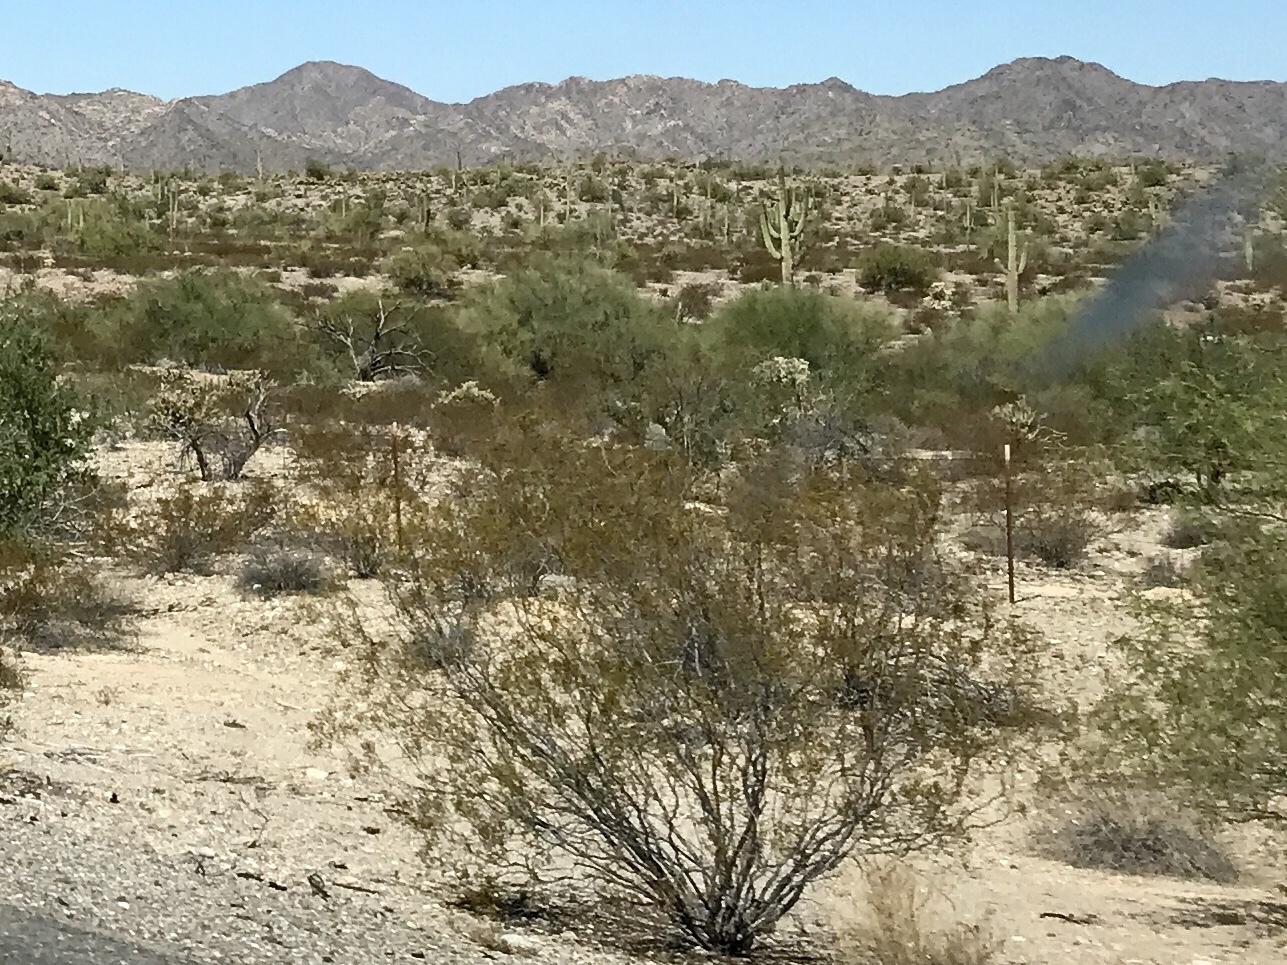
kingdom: Plantae
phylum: Tracheophyta
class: Magnoliopsida
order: Zygophyllales
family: Zygophyllaceae
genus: Larrea
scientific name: Larrea tridentata
